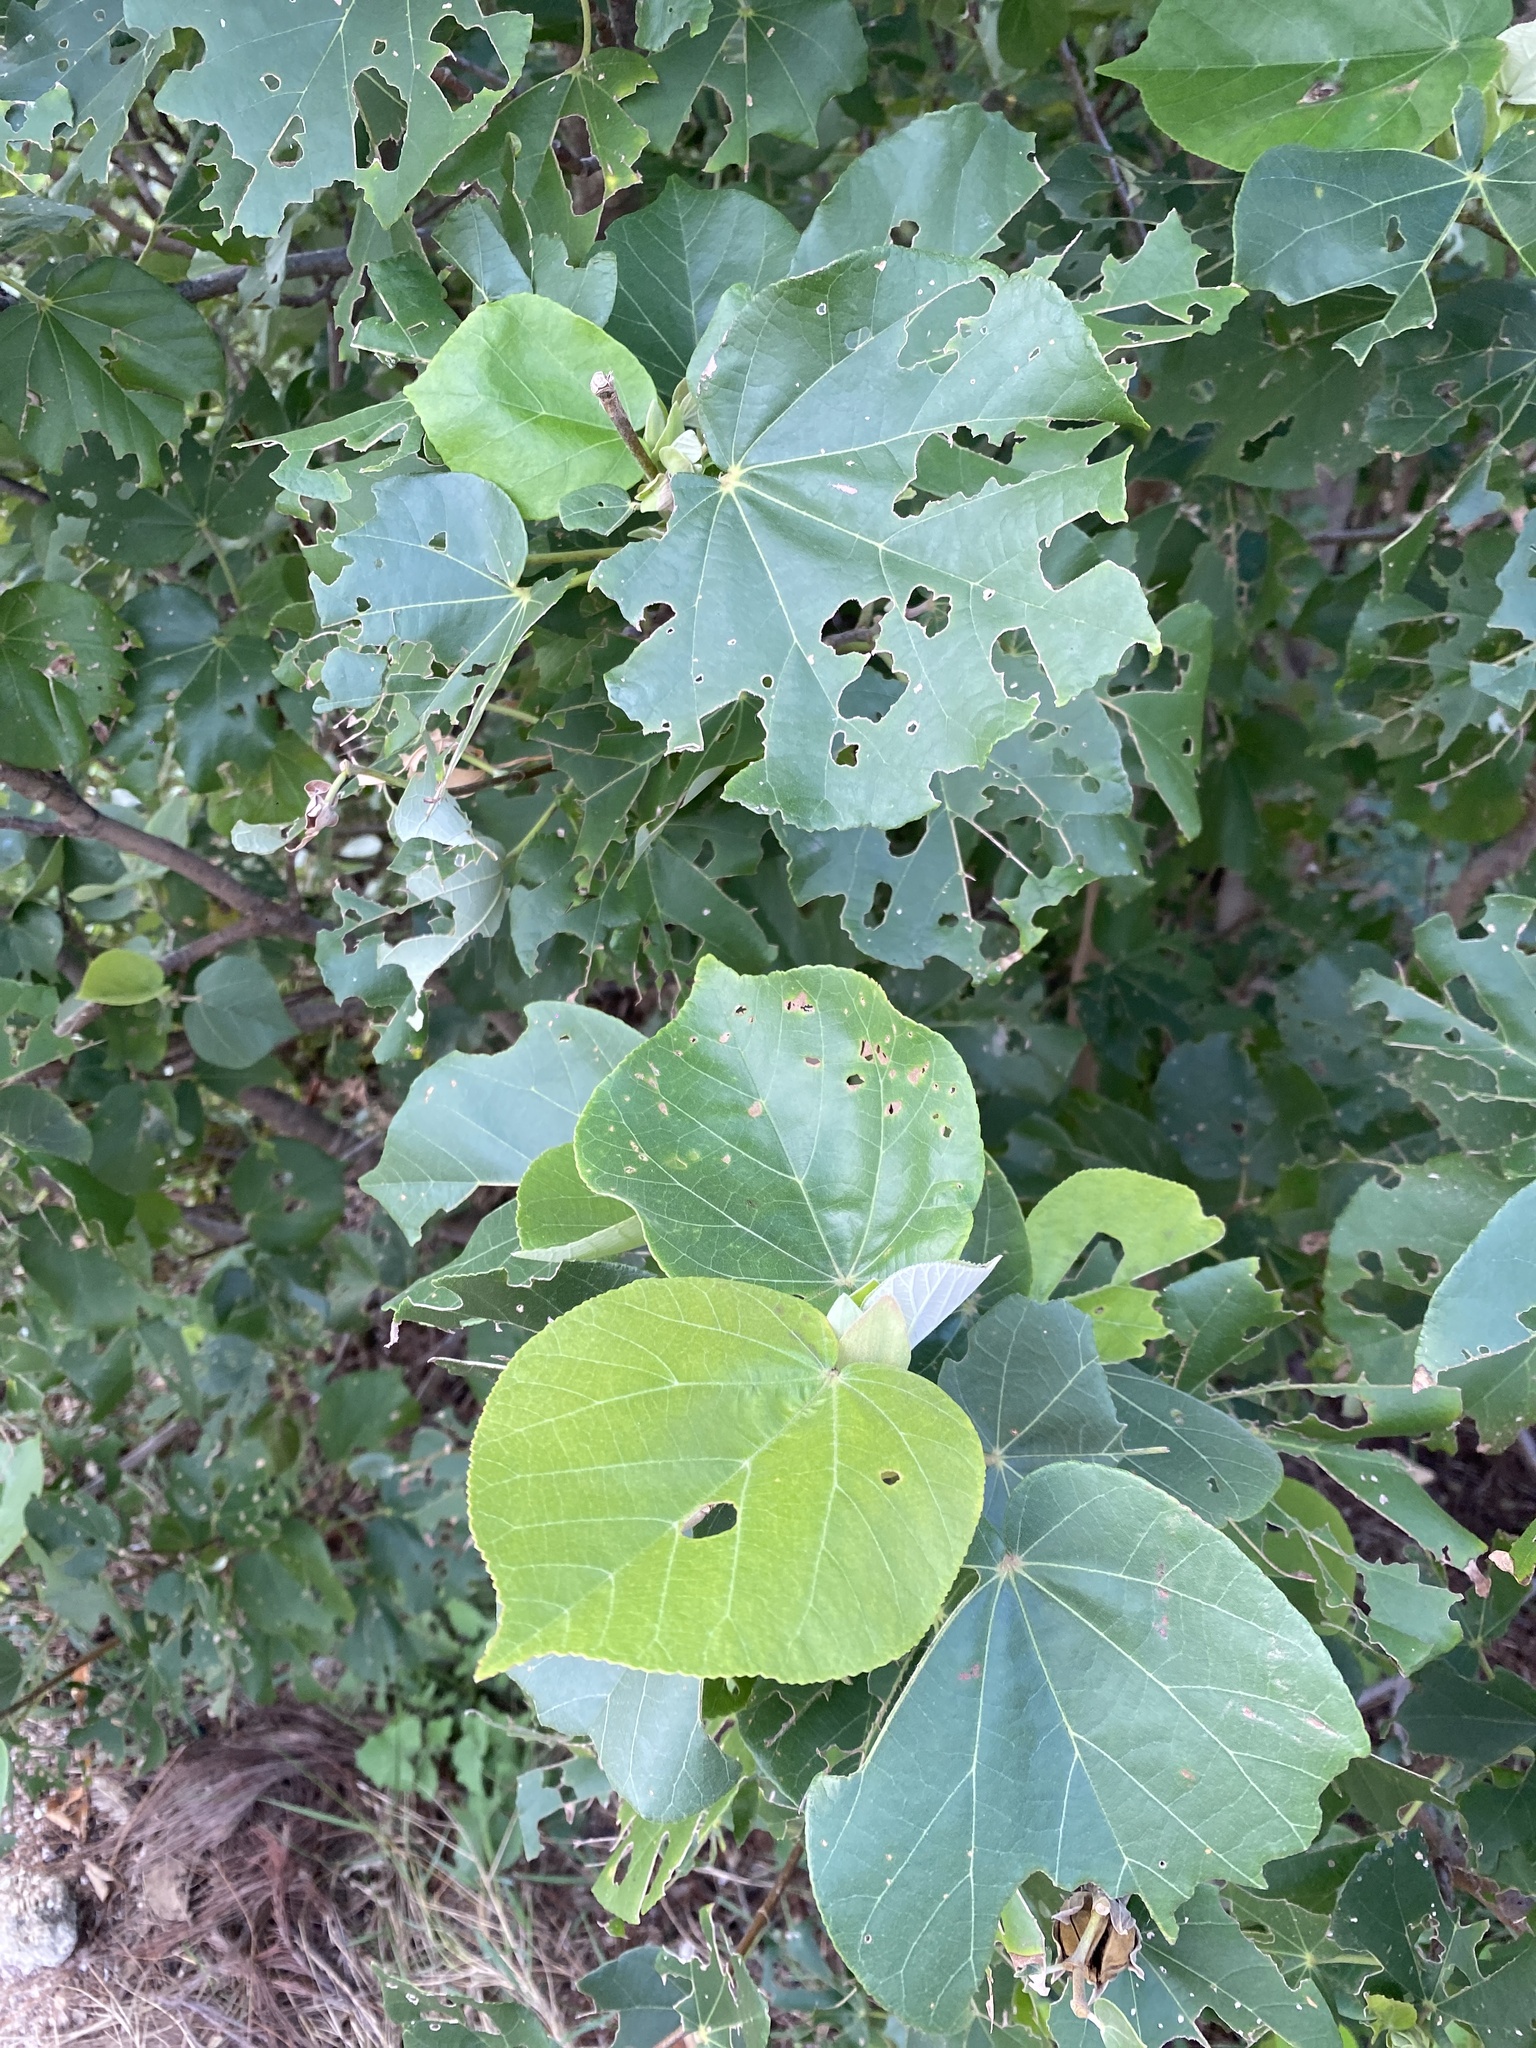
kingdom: Plantae
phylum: Tracheophyta
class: Magnoliopsida
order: Malvales
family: Malvaceae
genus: Talipariti
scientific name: Talipariti tiliaceum
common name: Sea hibiscus
